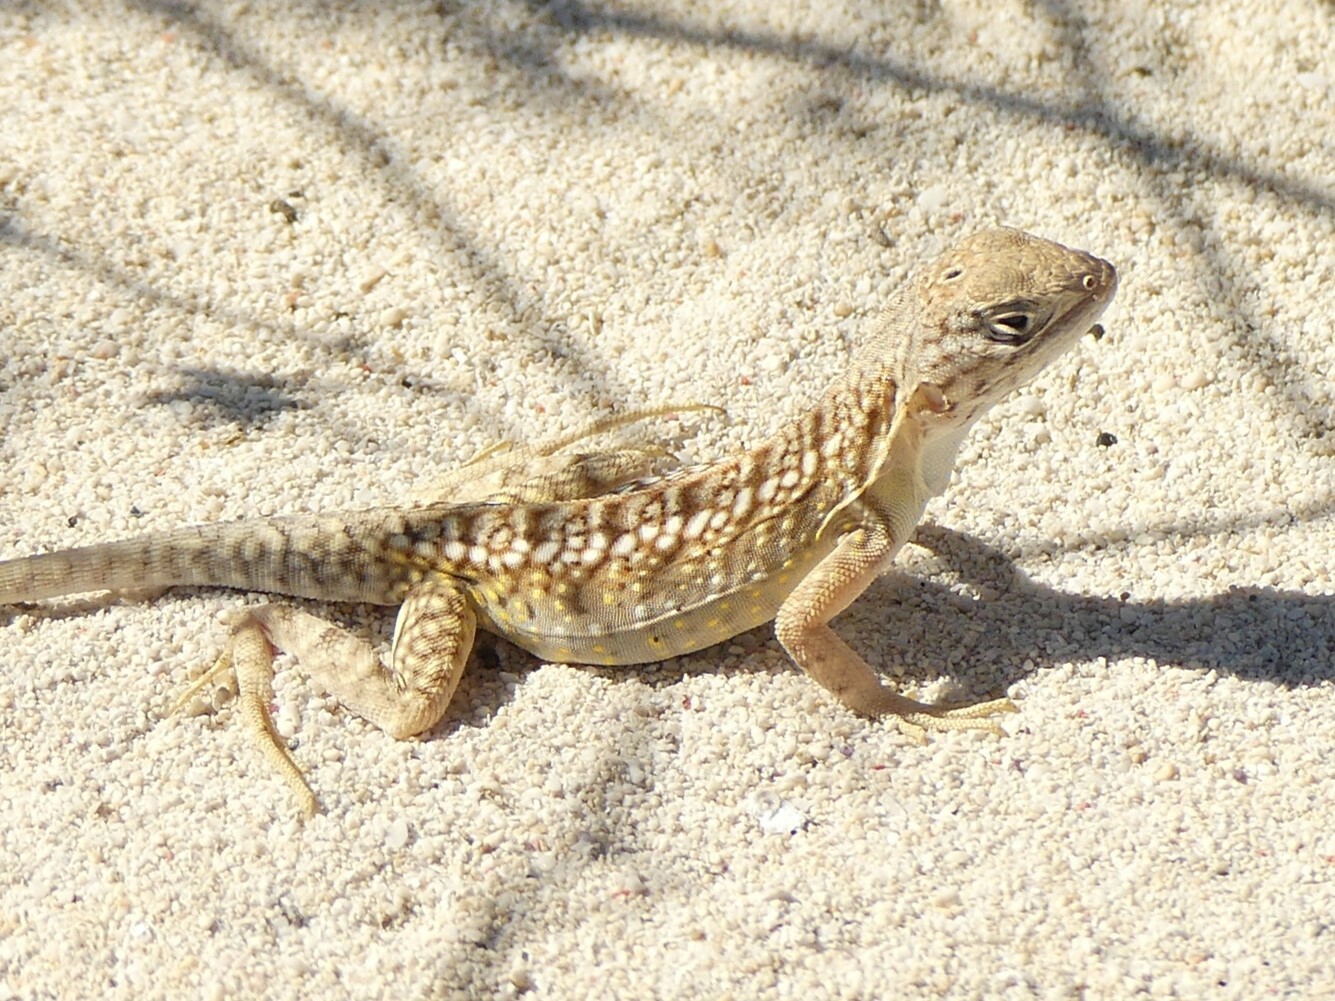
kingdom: Animalia
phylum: Chordata
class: Squamata
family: Opluridae
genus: Chalarodon
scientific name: Chalarodon madagascariensis
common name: Madagascar iguana
